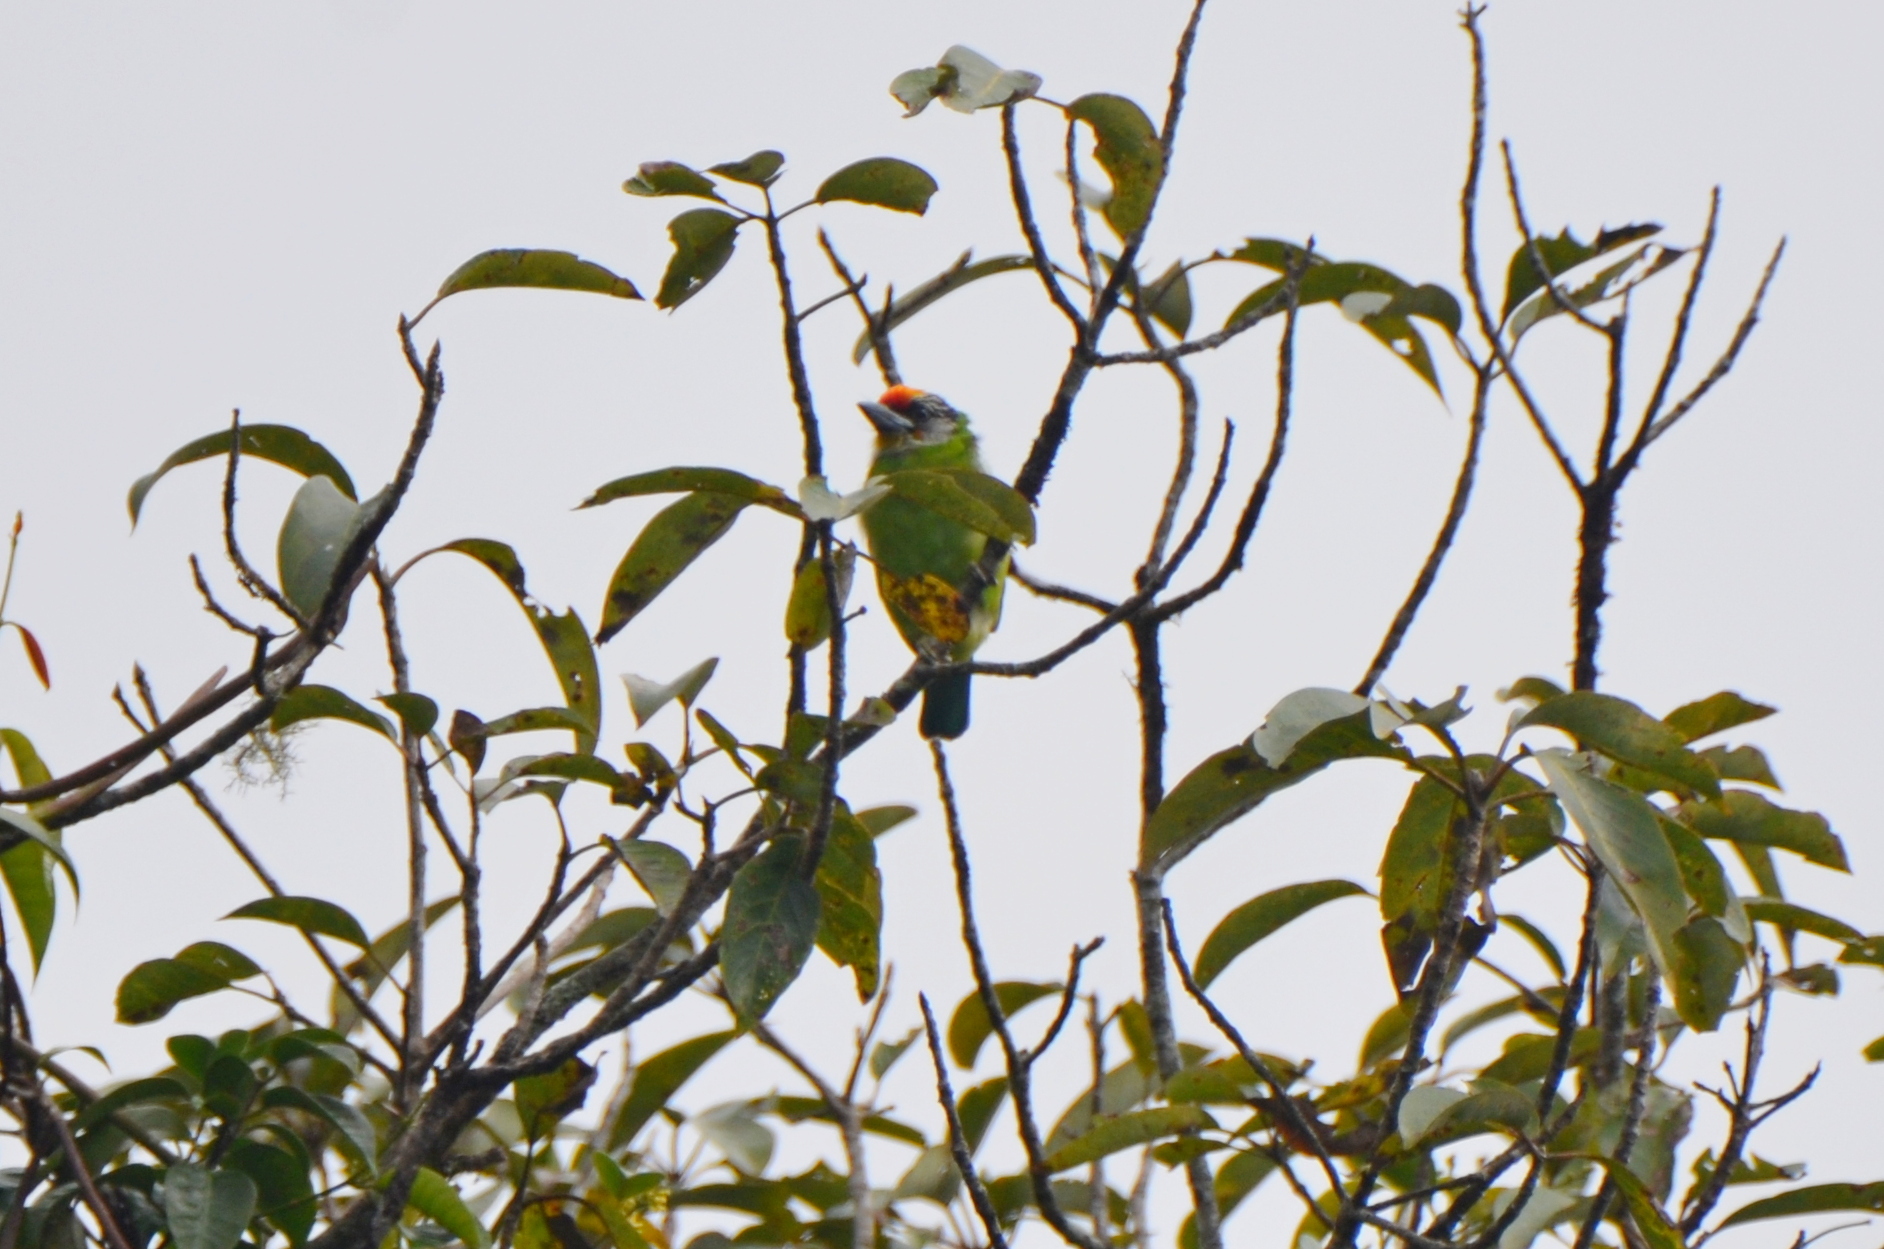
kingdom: Animalia
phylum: Chordata
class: Aves
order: Piciformes
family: Megalaimidae
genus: Psilopogon
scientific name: Psilopogon franklinii
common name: Golden-throated barbet
